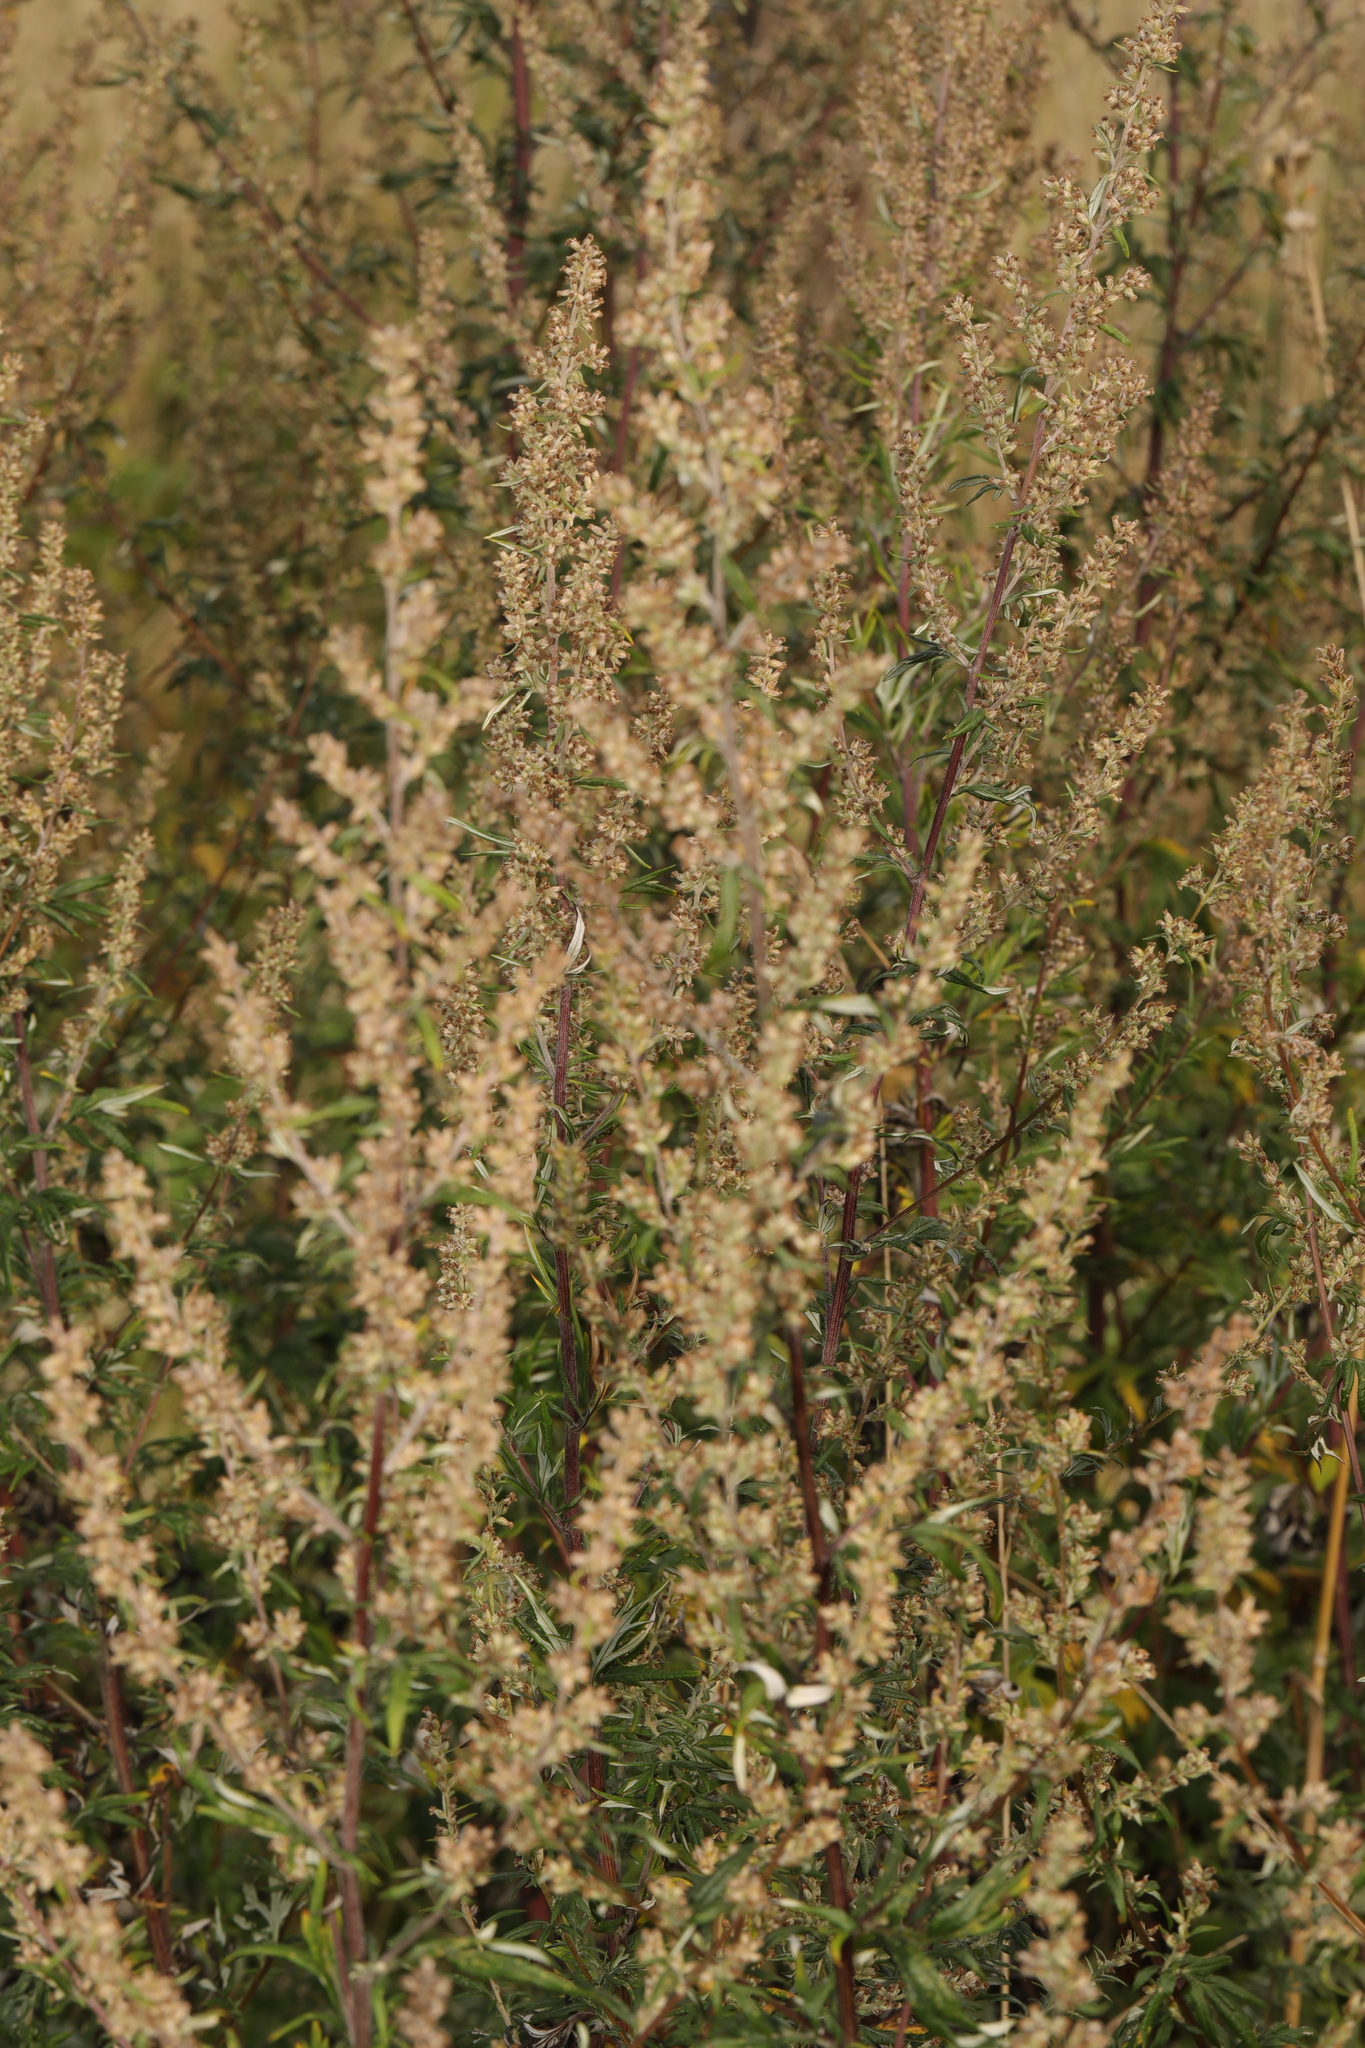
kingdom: Plantae
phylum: Tracheophyta
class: Magnoliopsida
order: Asterales
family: Asteraceae
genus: Artemisia
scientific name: Artemisia vulgaris
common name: Mugwort
